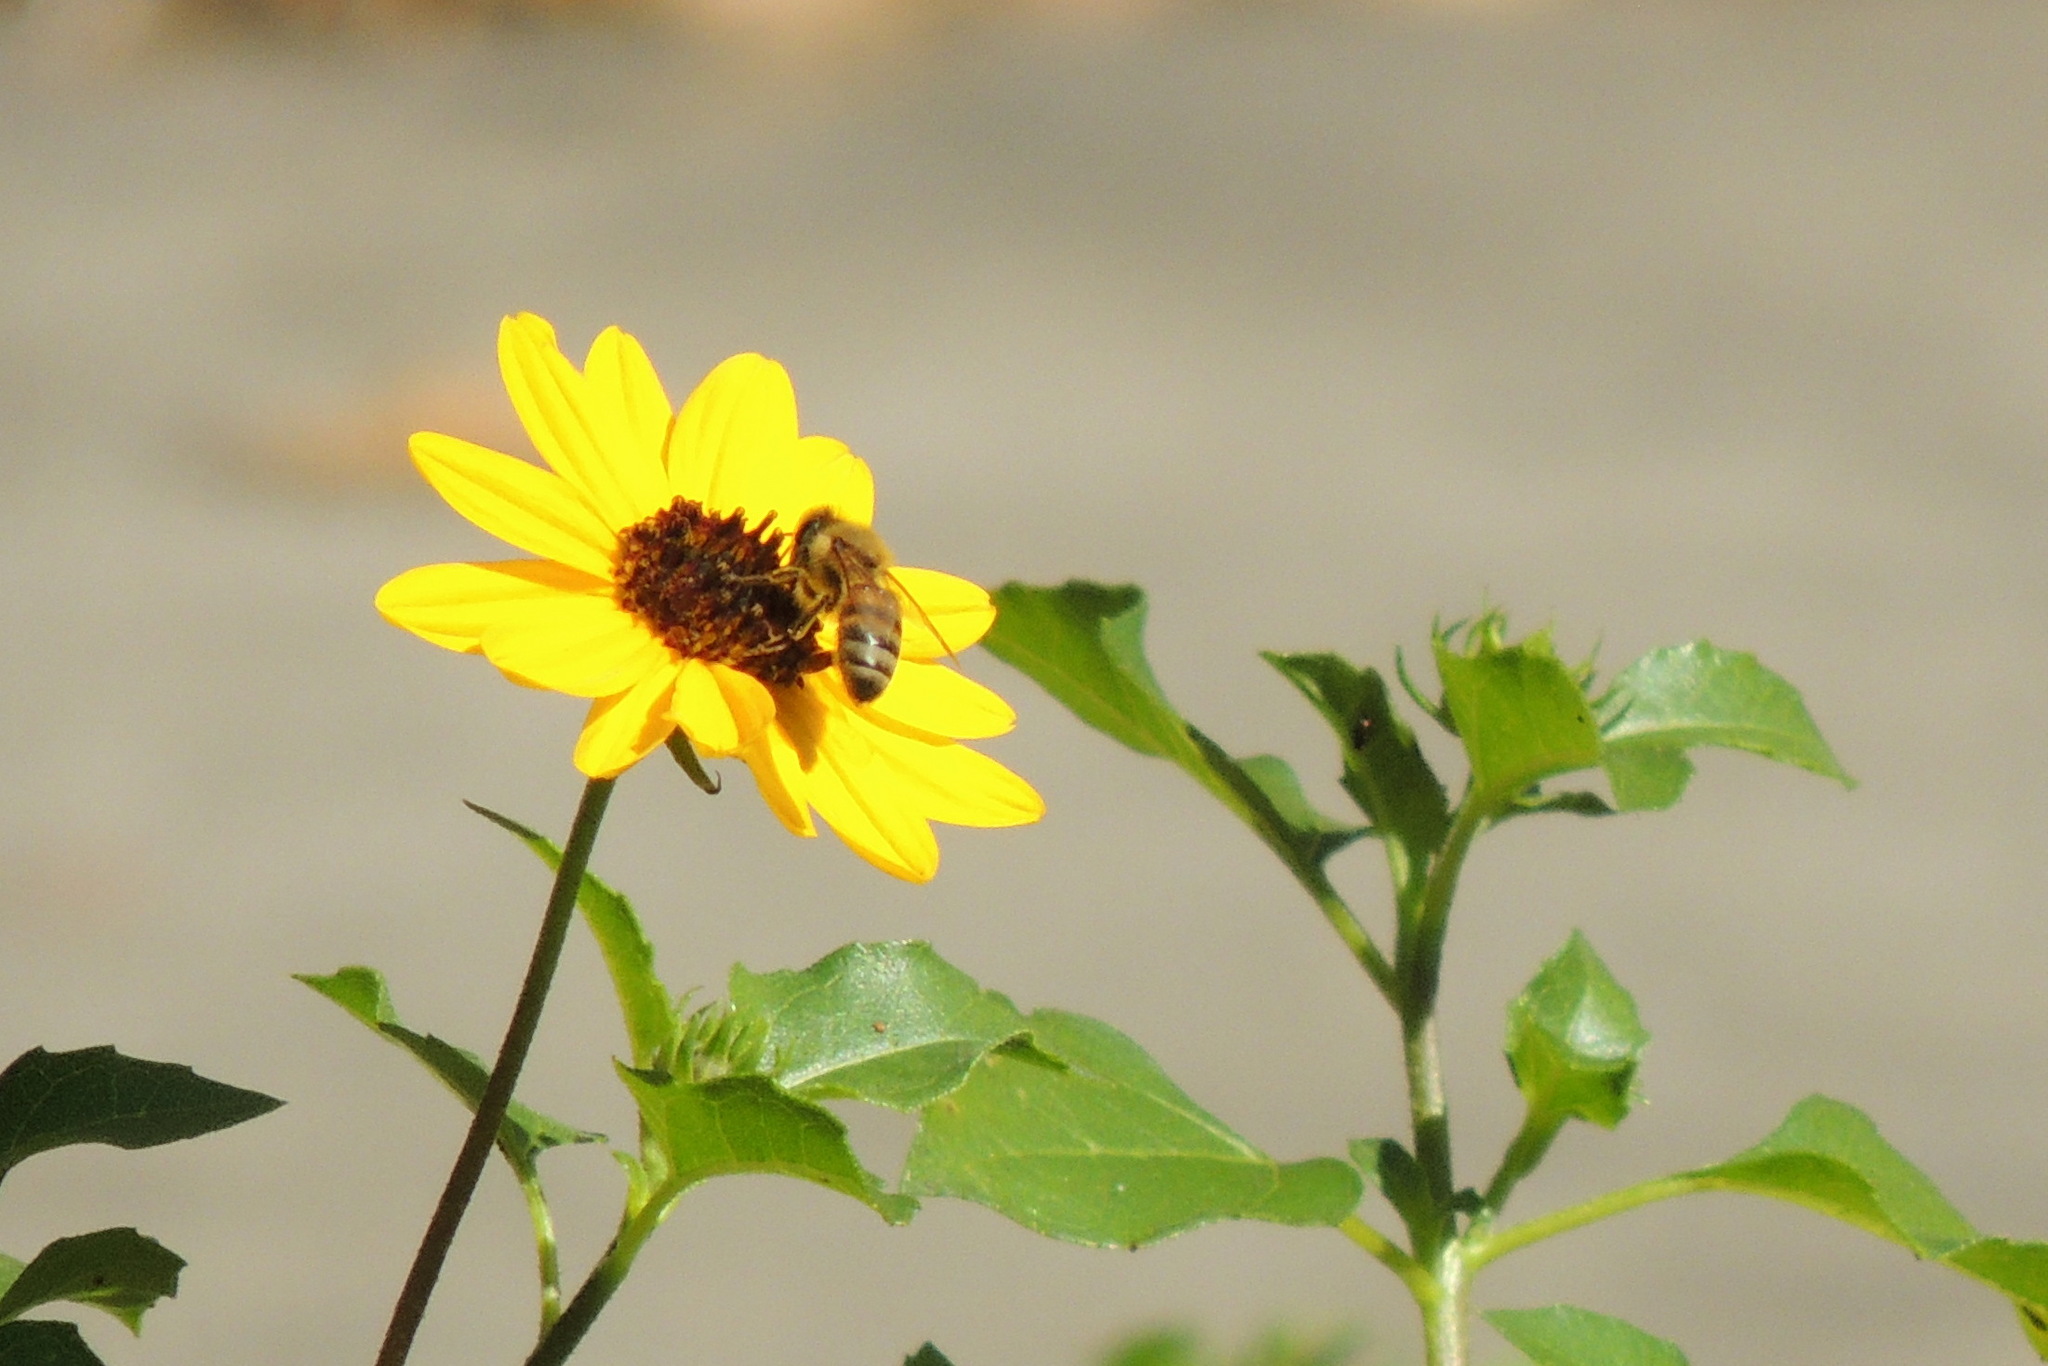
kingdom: Animalia
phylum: Arthropoda
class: Insecta
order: Hymenoptera
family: Apidae
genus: Apis
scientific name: Apis mellifera
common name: Honey bee
